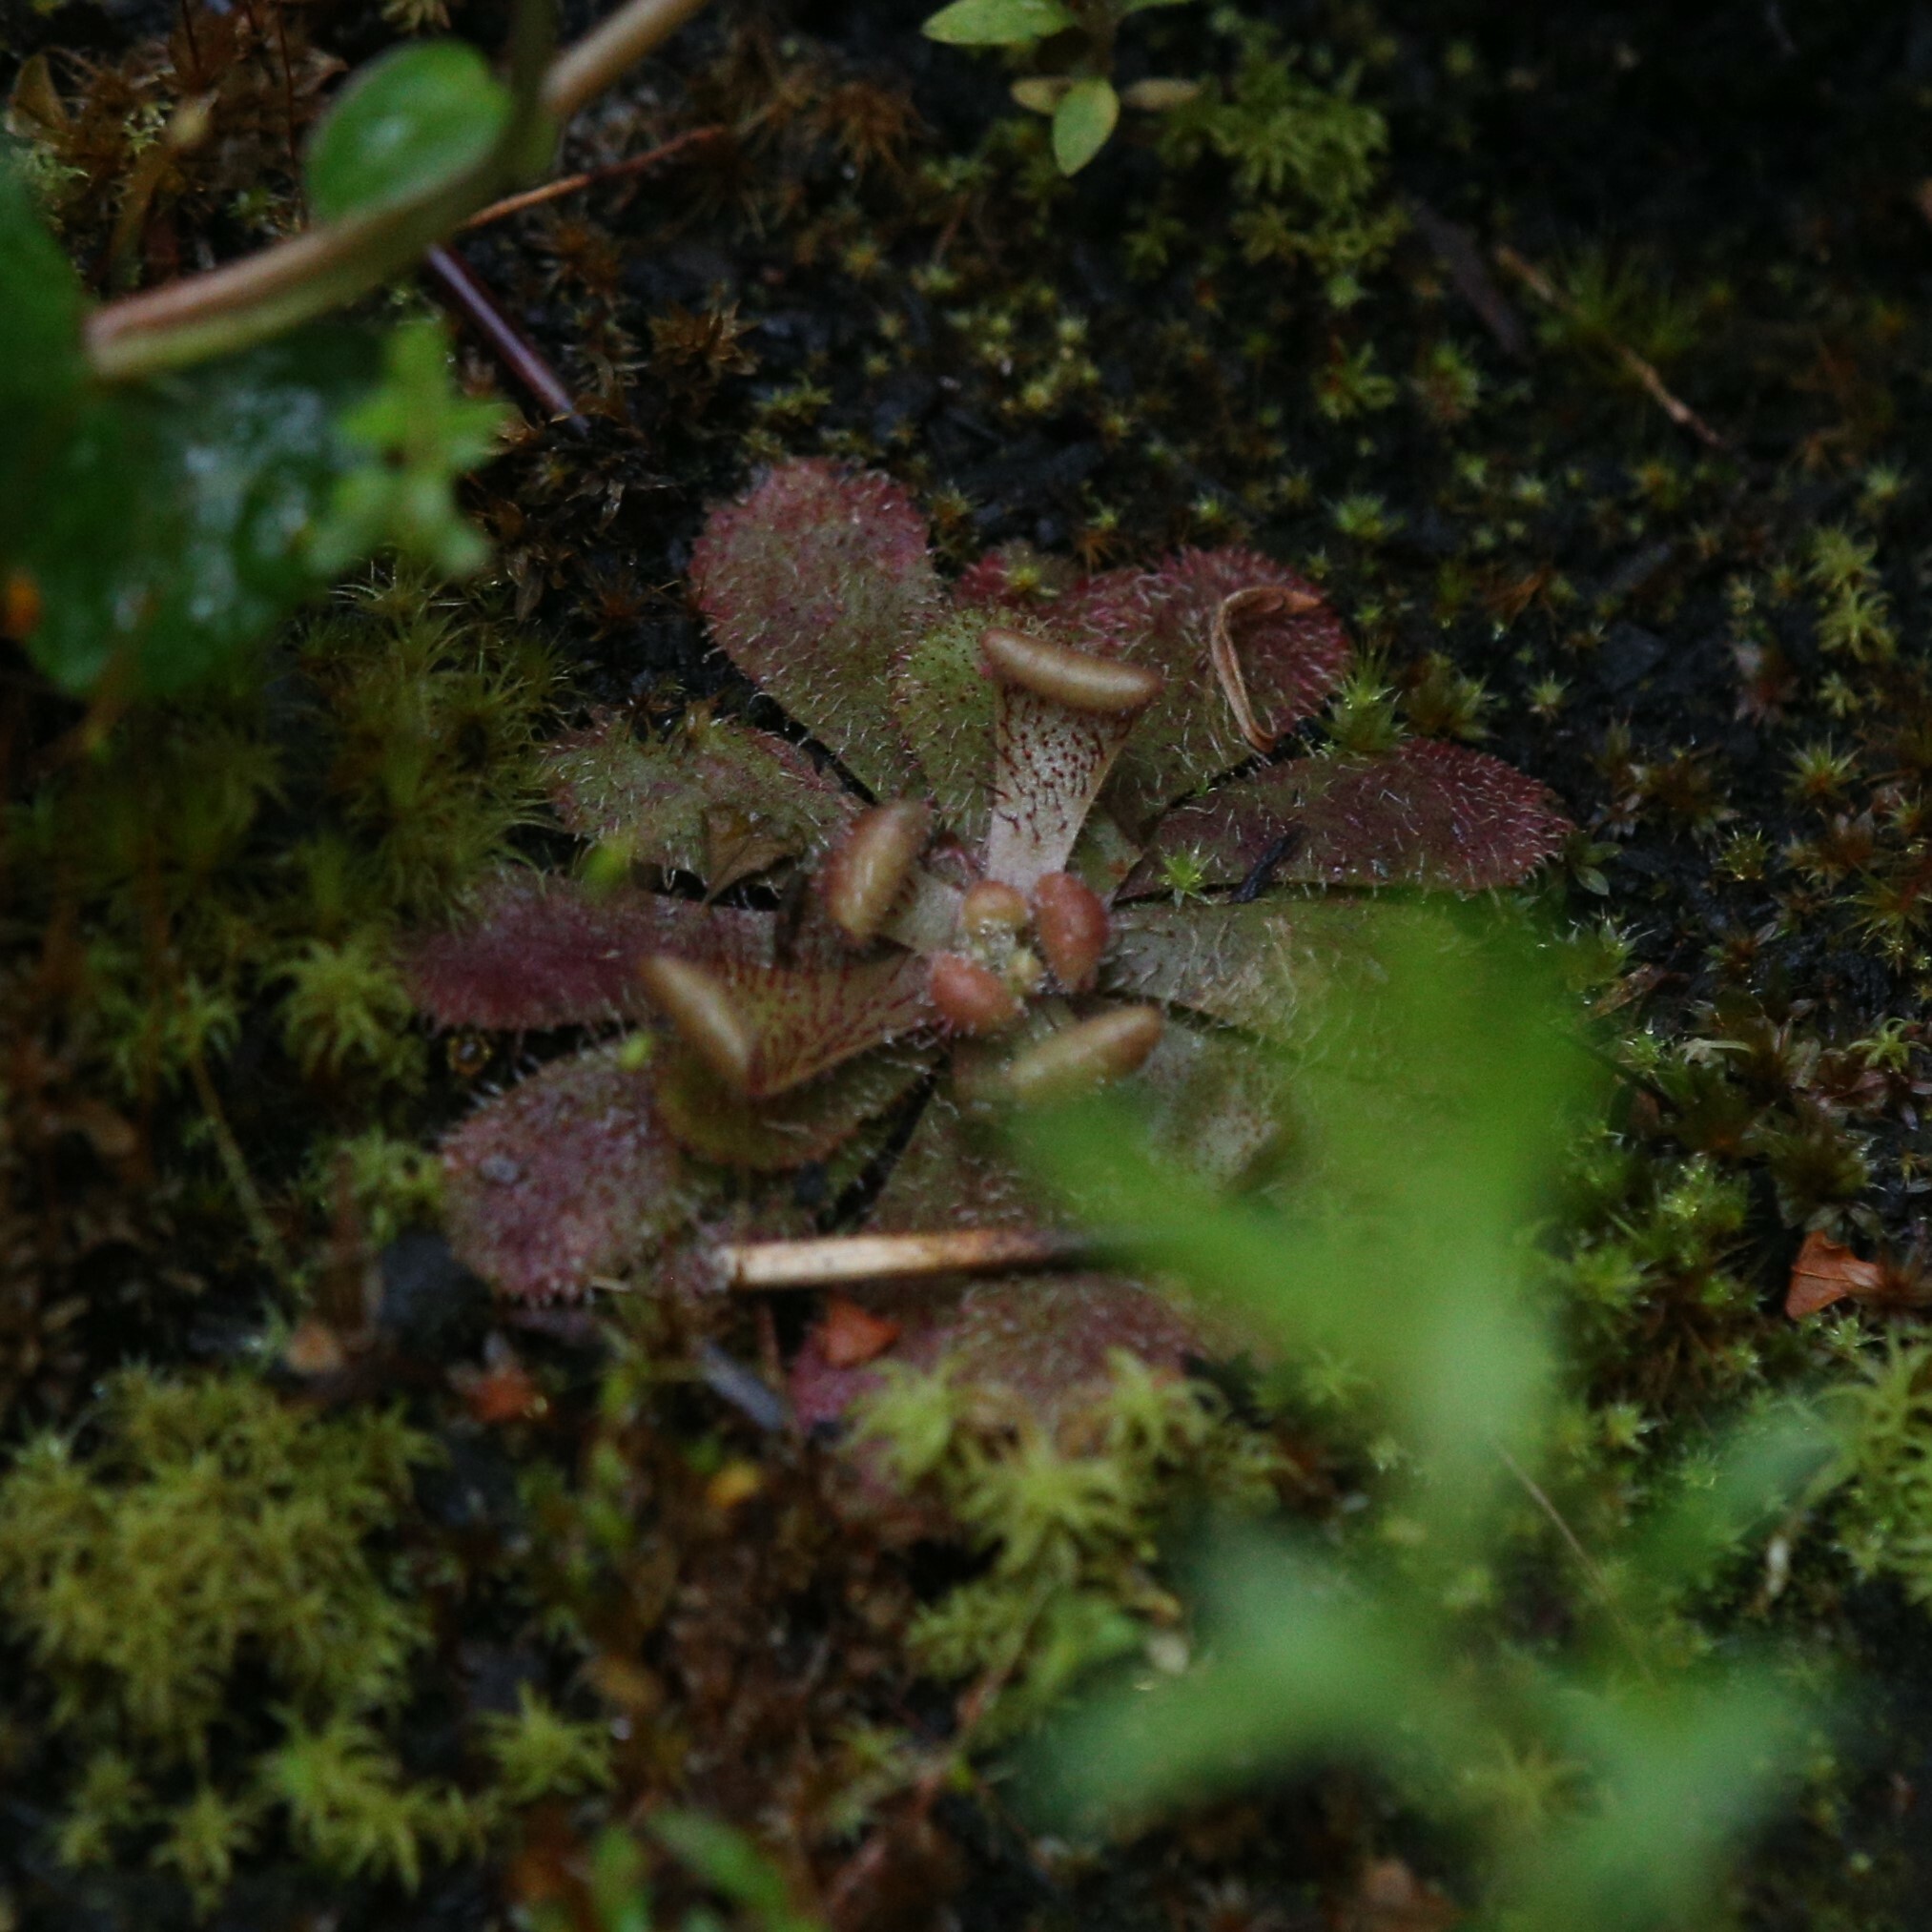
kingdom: Plantae
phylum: Tracheophyta
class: Magnoliopsida
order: Caryophyllales
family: Droseraceae
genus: Drosera
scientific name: Drosera hamiltonii
